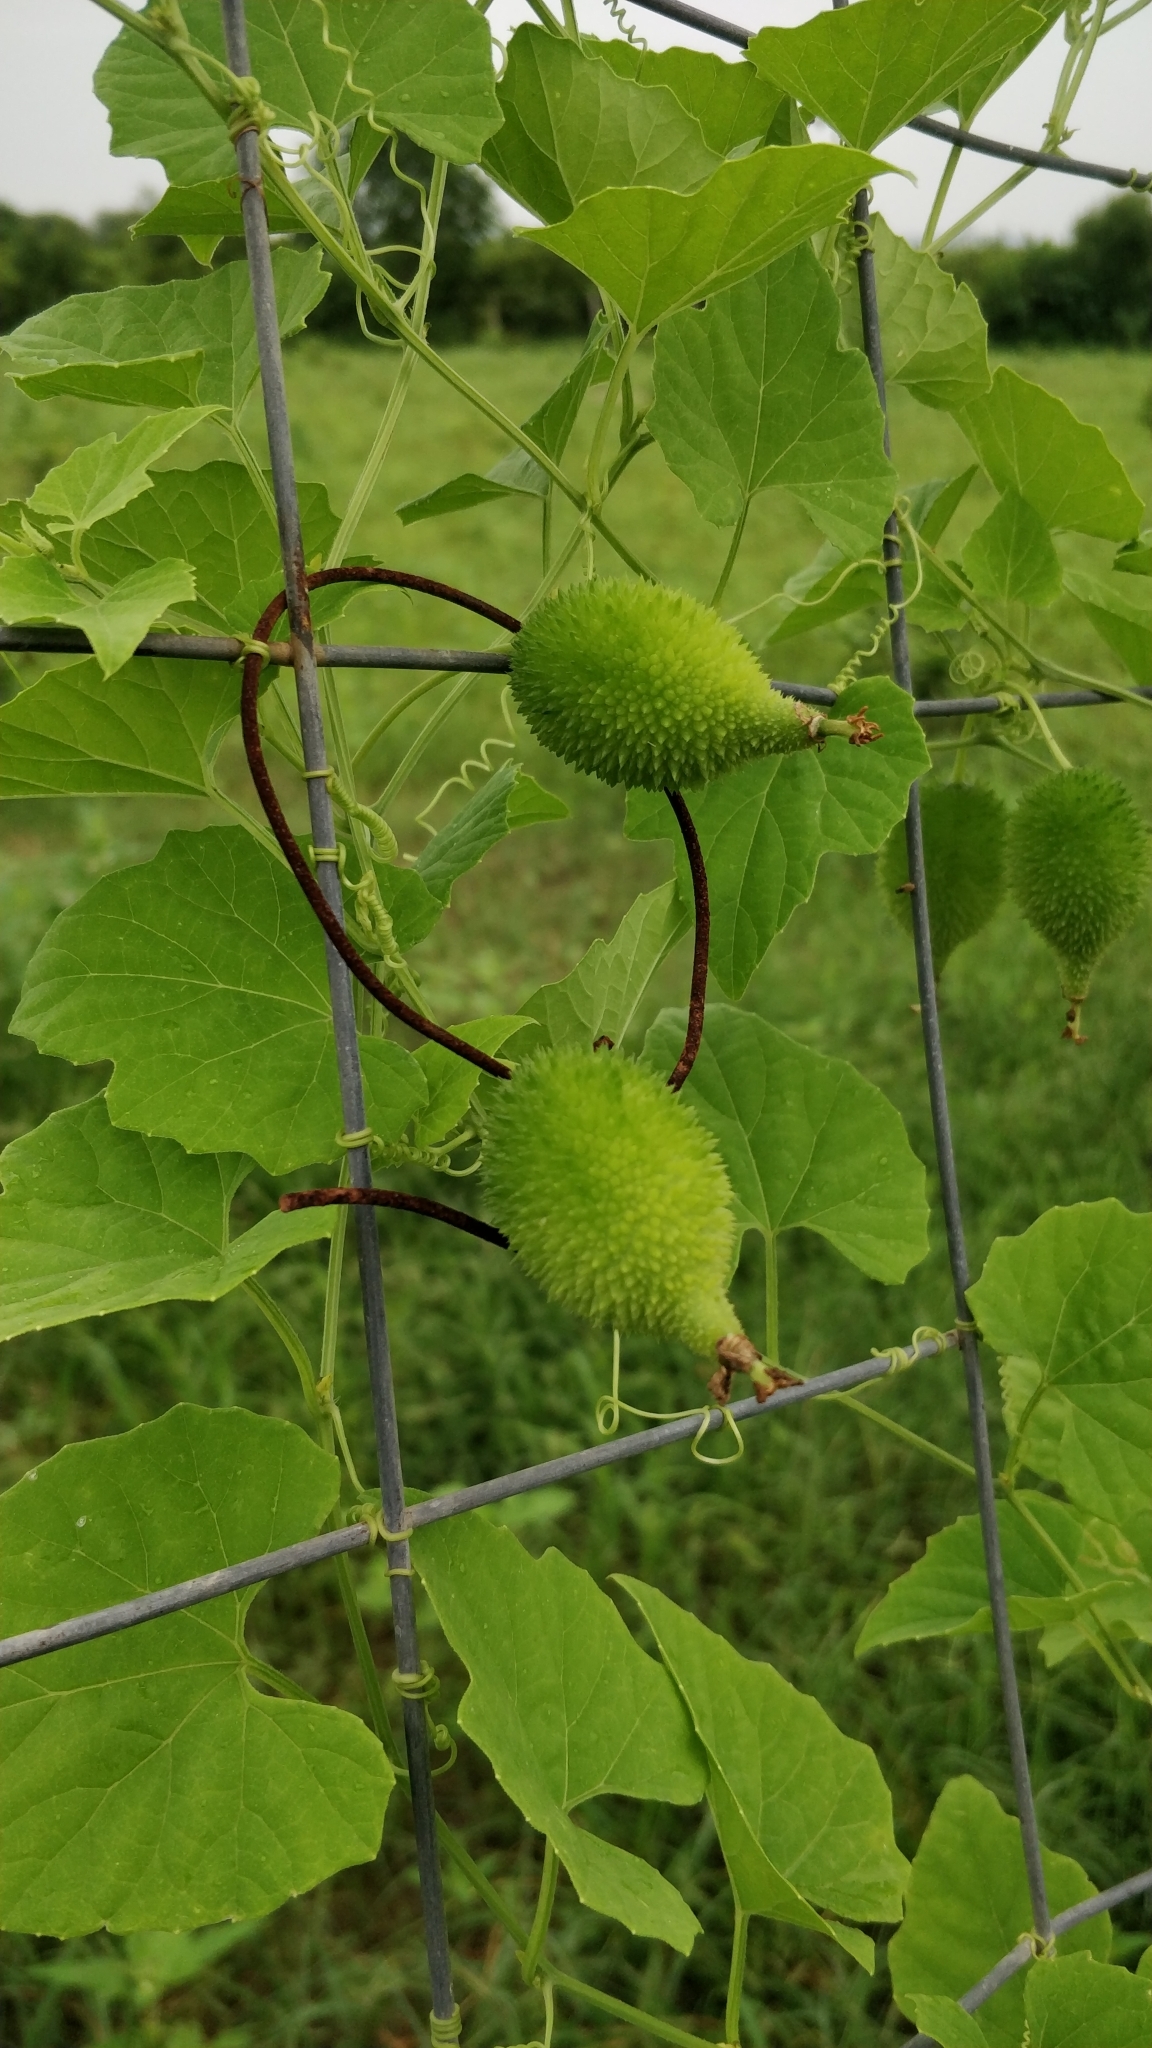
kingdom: Plantae
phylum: Tracheophyta
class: Magnoliopsida
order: Cucurbitales
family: Cucurbitaceae
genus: Momordica
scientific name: Momordica dioica
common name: Spine gourd
